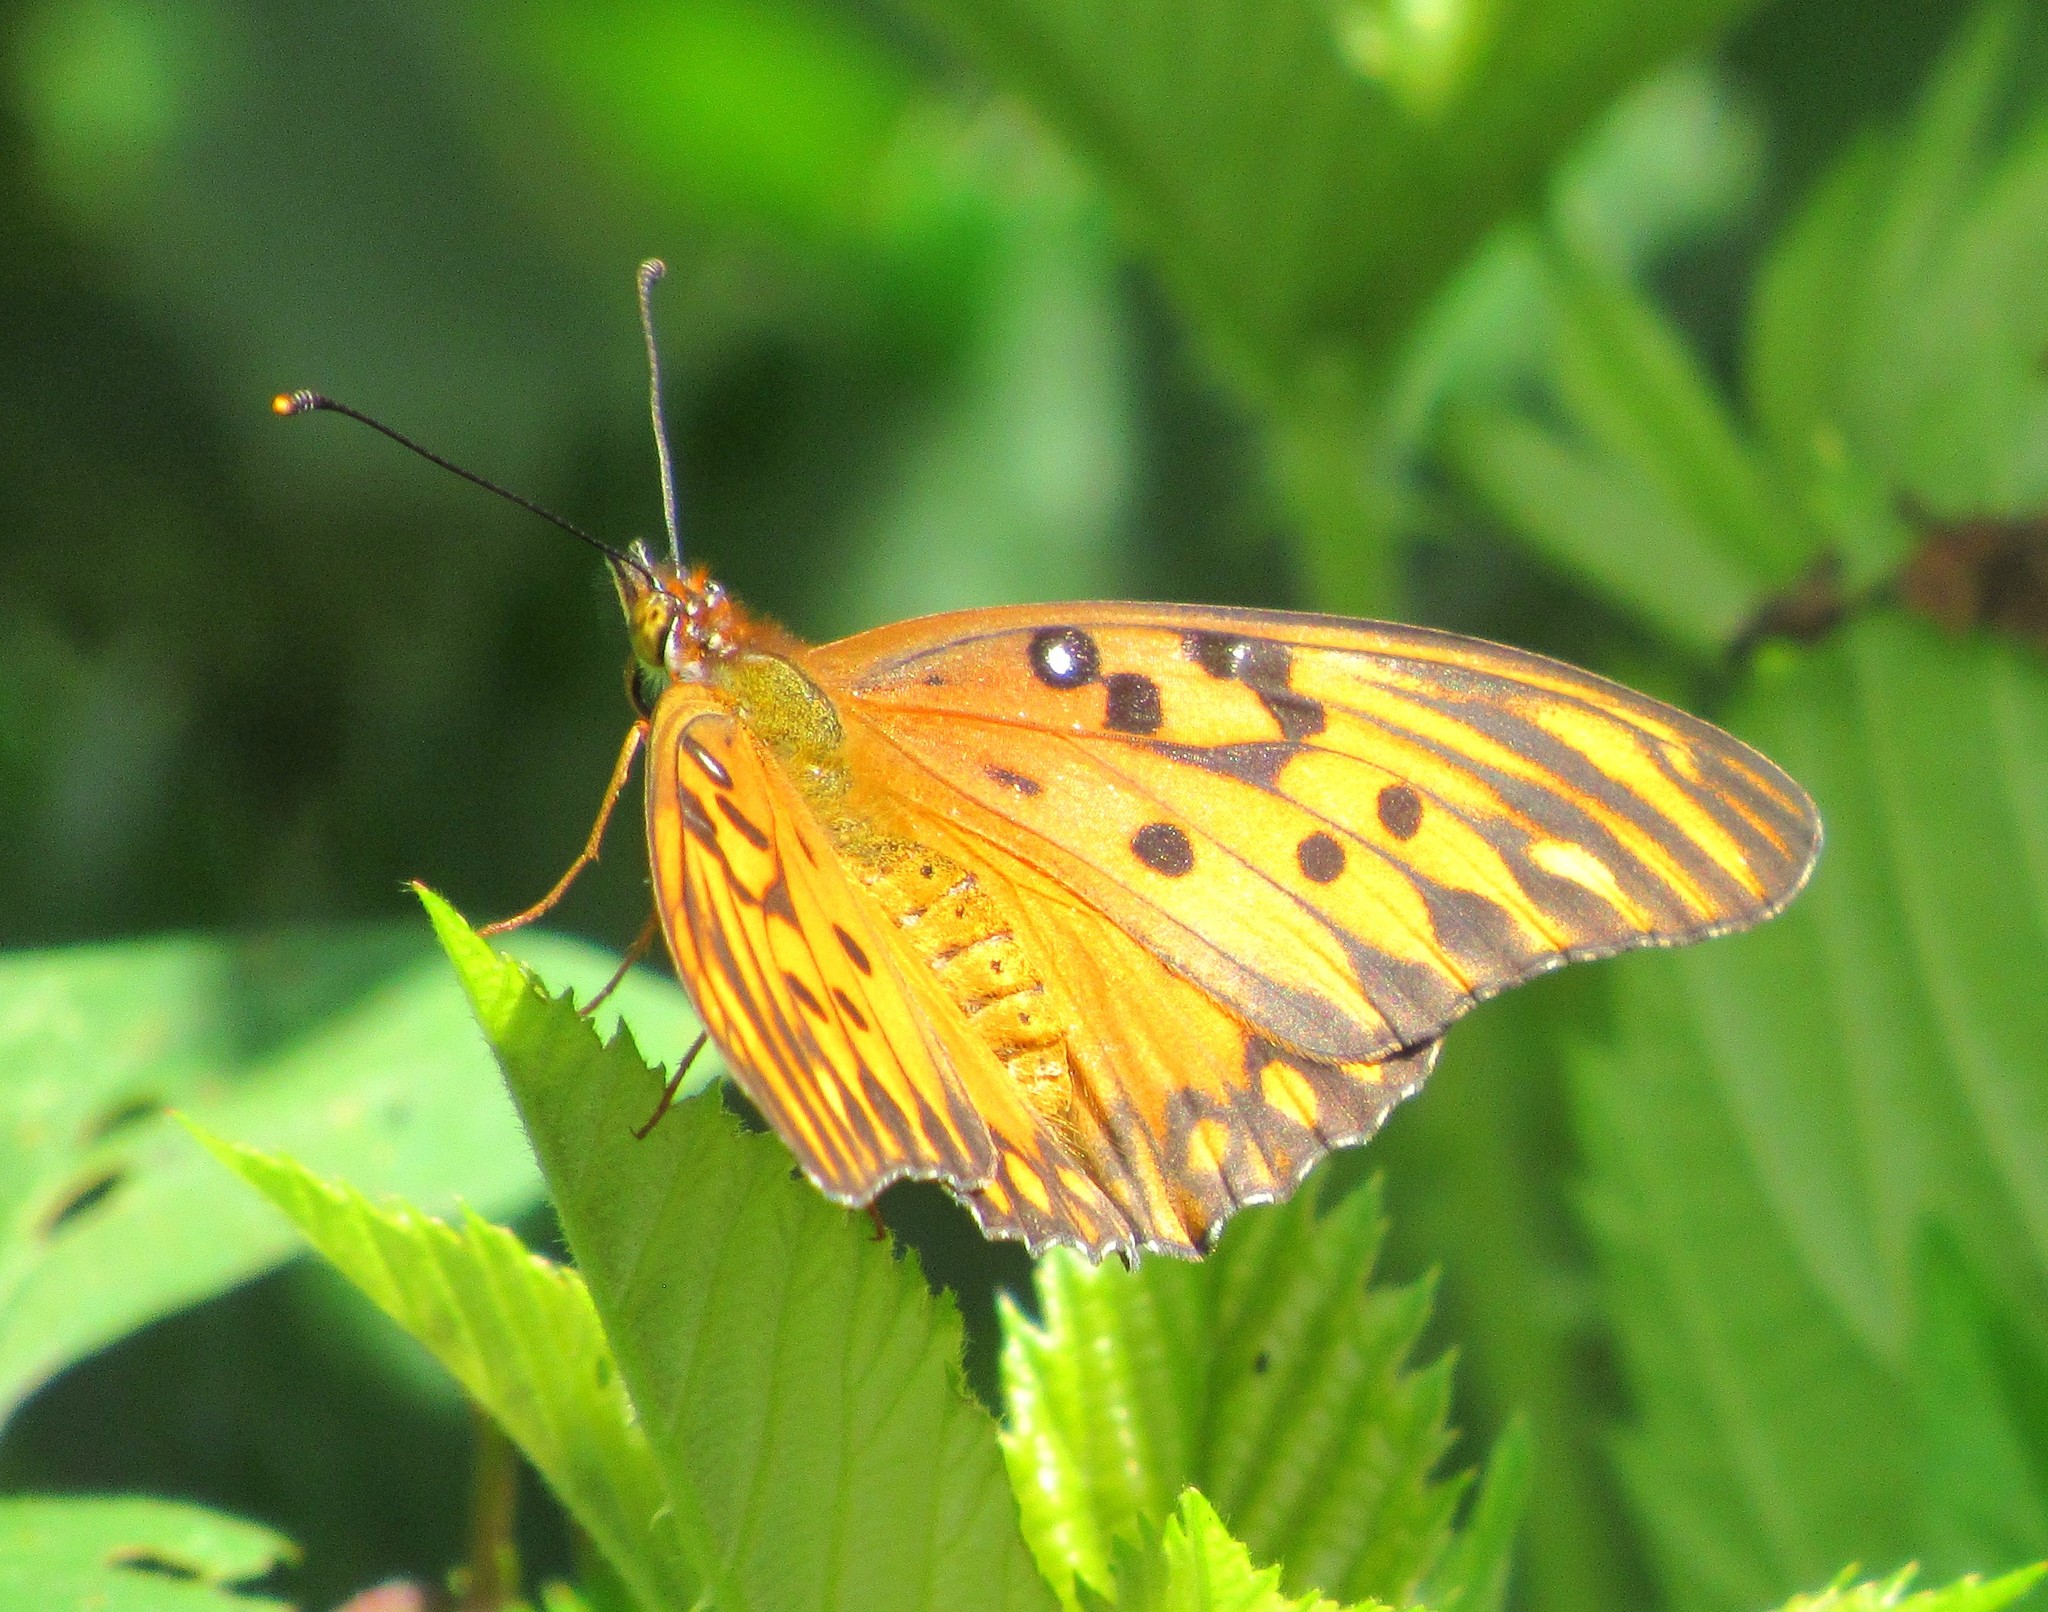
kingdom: Animalia
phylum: Arthropoda
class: Insecta
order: Lepidoptera
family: Nymphalidae
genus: Dione
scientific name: Dione vanillae
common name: Gulf fritillary
